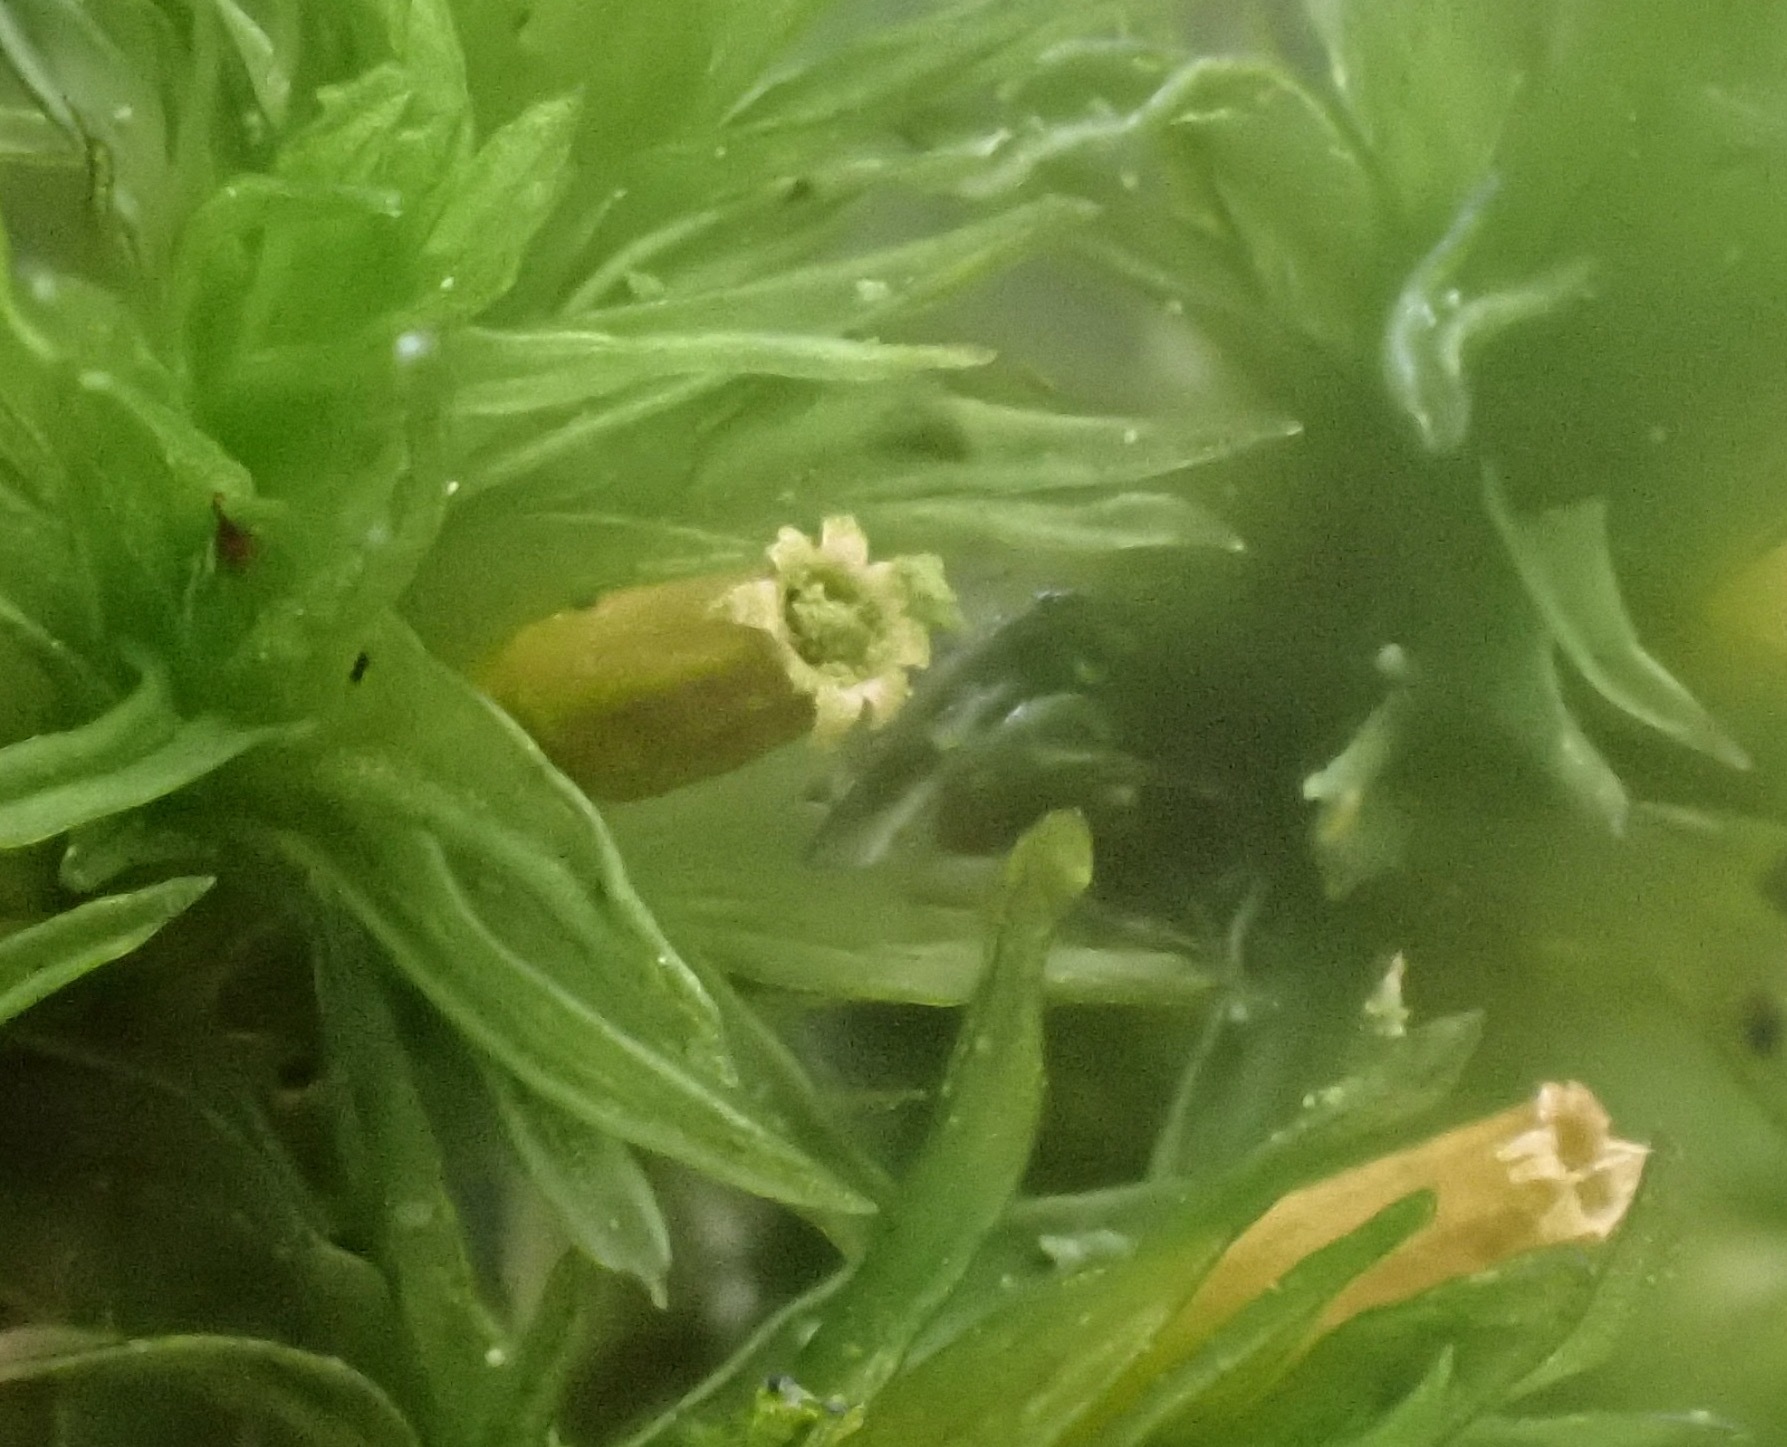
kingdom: Plantae
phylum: Bryophyta
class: Bryopsida
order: Orthotrichales
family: Orthotrichaceae
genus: Lewinskya
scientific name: Lewinskya affinis
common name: Wood bristle-moss
